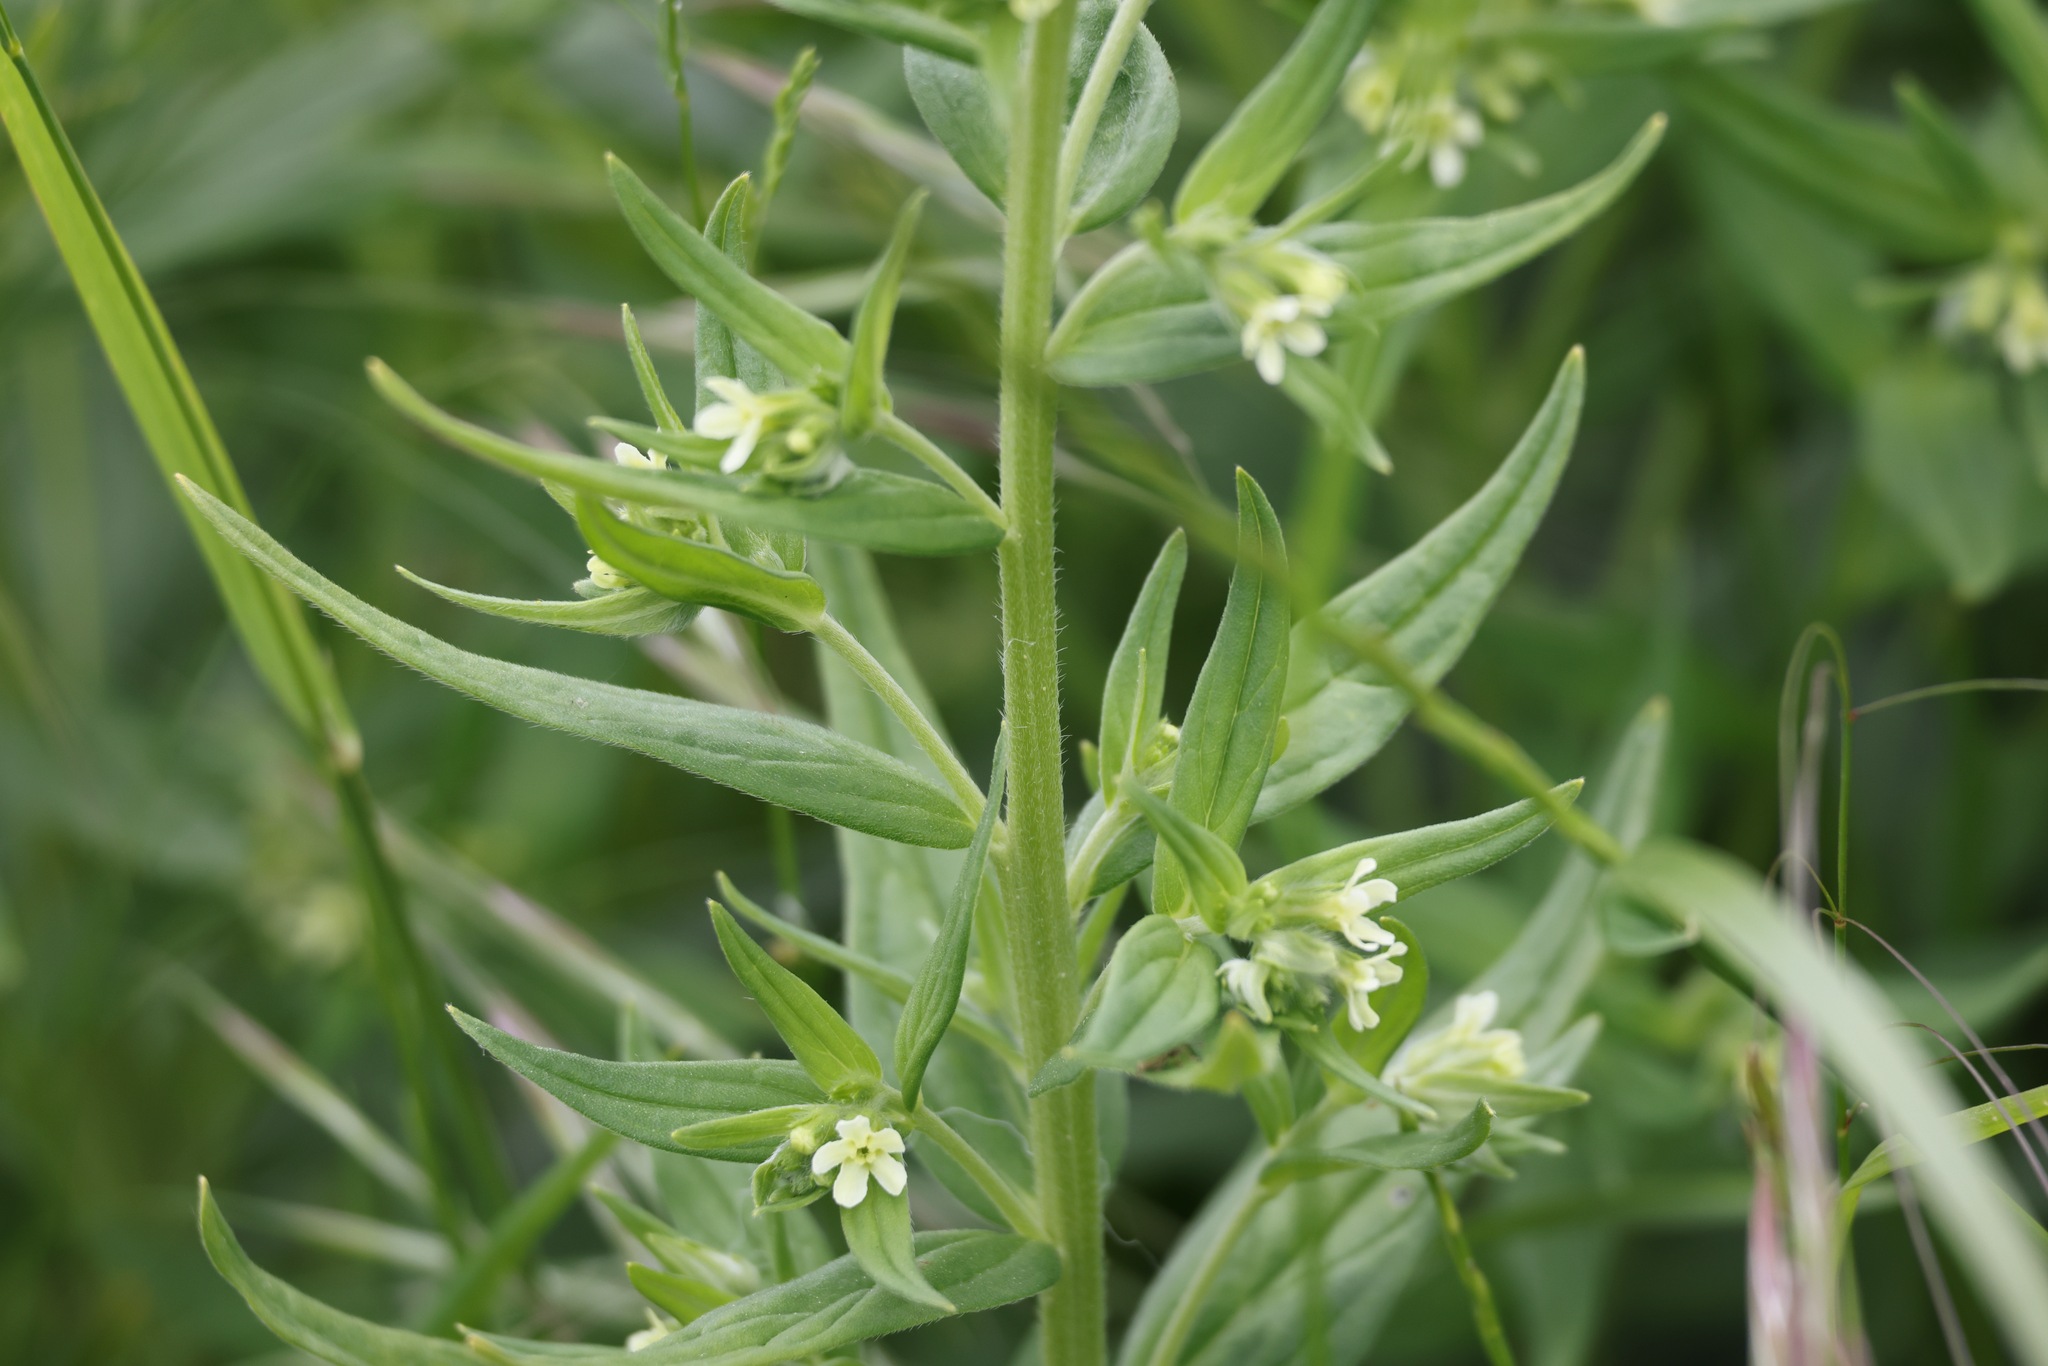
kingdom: Plantae
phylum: Tracheophyta
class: Magnoliopsida
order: Boraginales
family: Boraginaceae
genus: Lithospermum
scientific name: Lithospermum officinale
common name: Common gromwell
